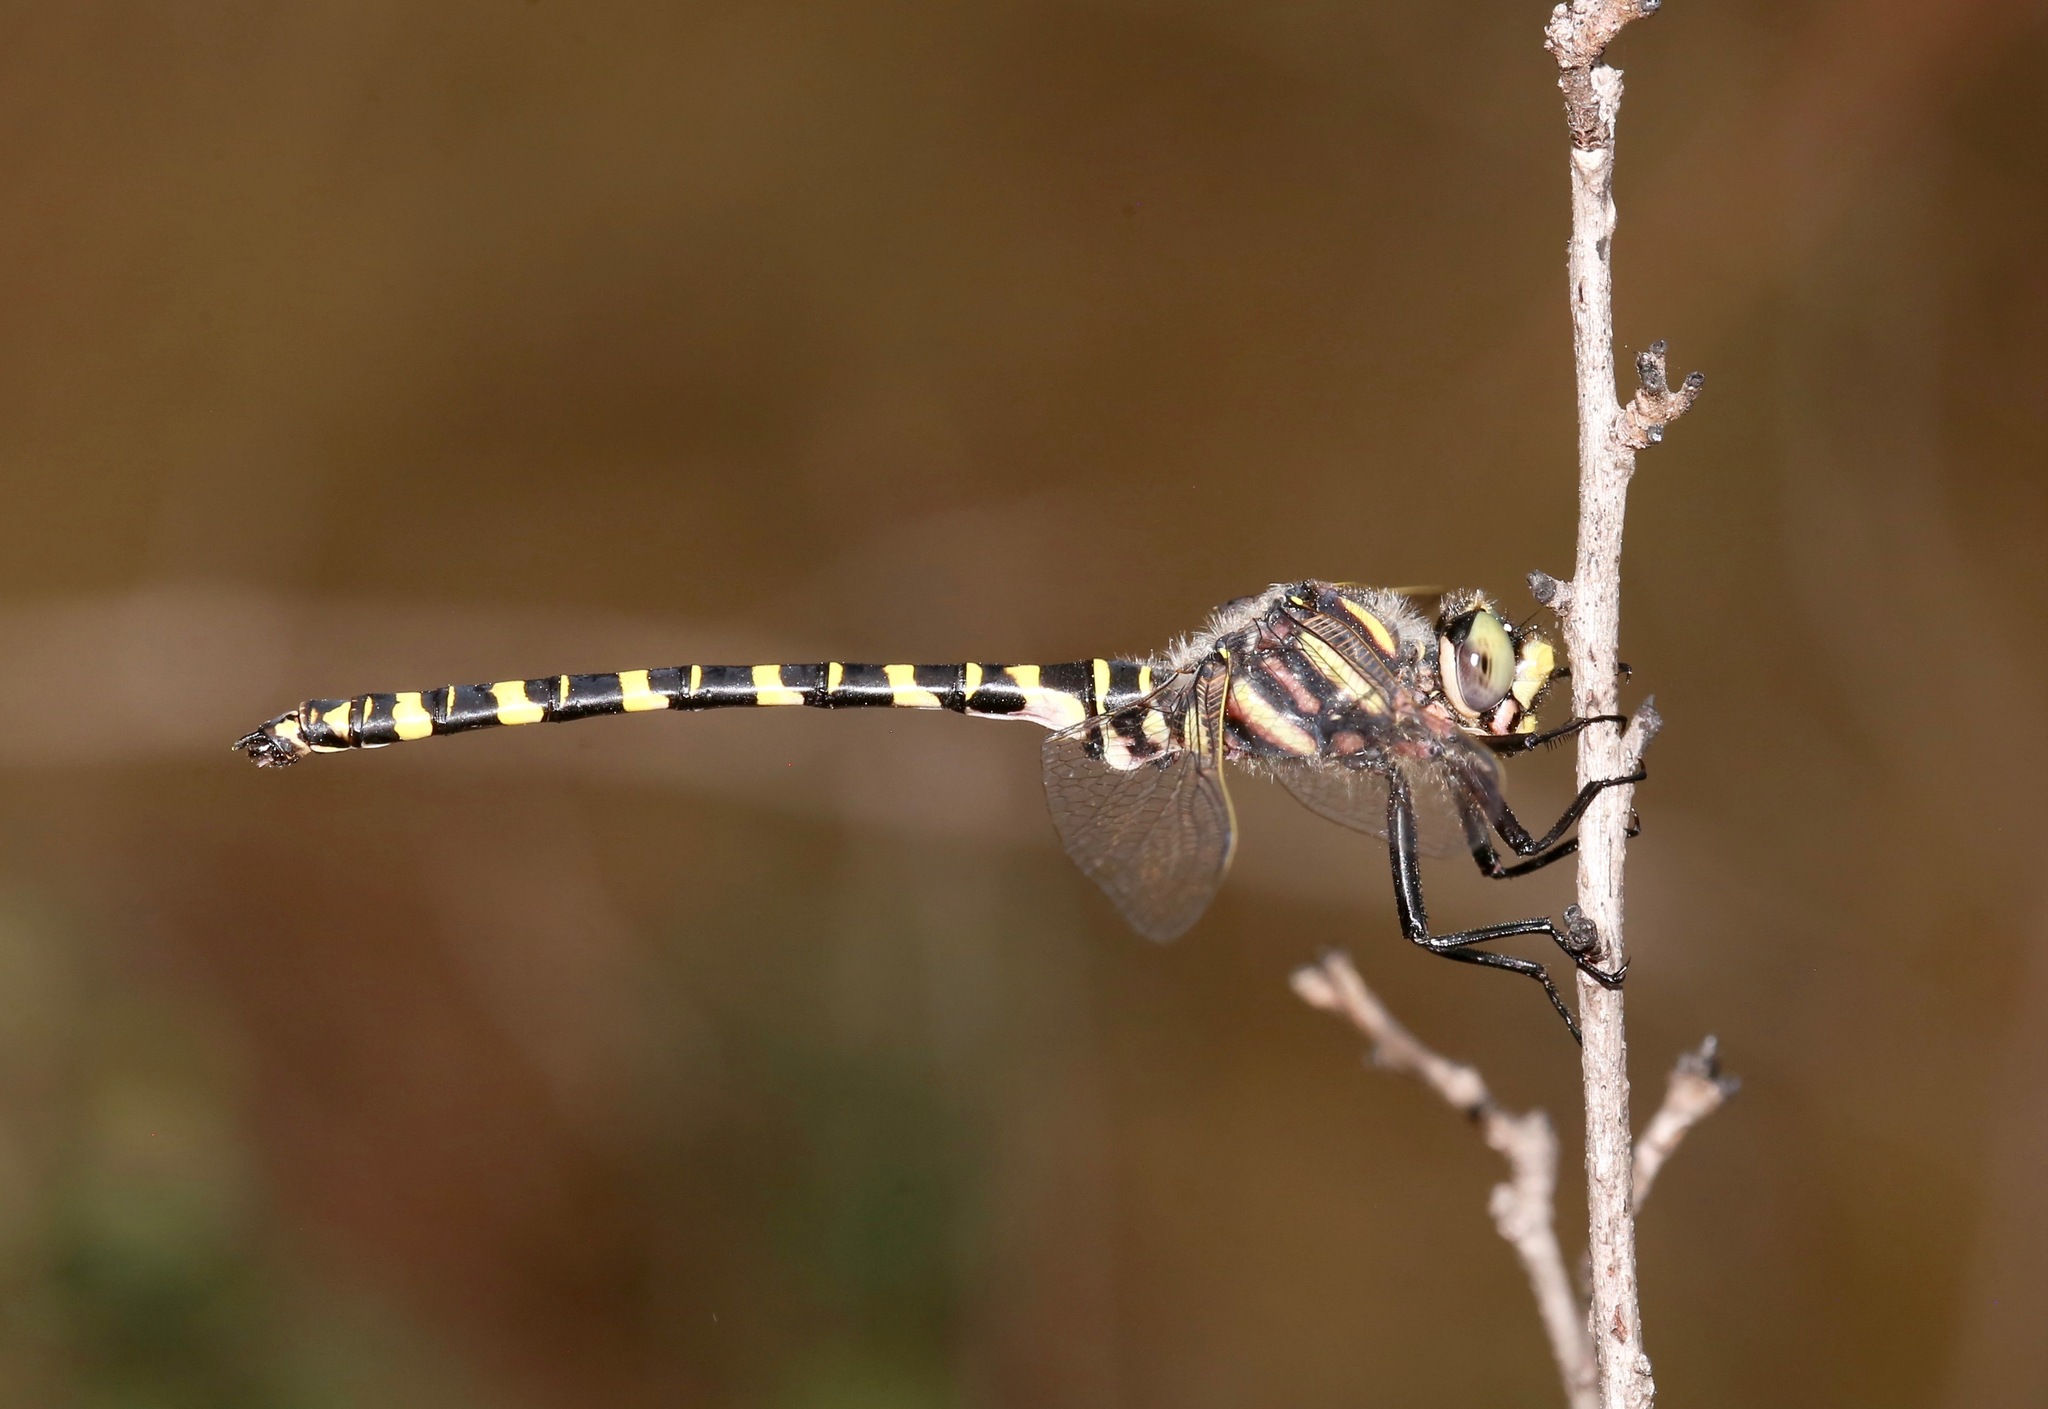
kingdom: Animalia
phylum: Arthropoda
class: Insecta
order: Odonata
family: Cordulegastridae
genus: Cordulegaster
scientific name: Cordulegaster sayi
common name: Say's spiketail
